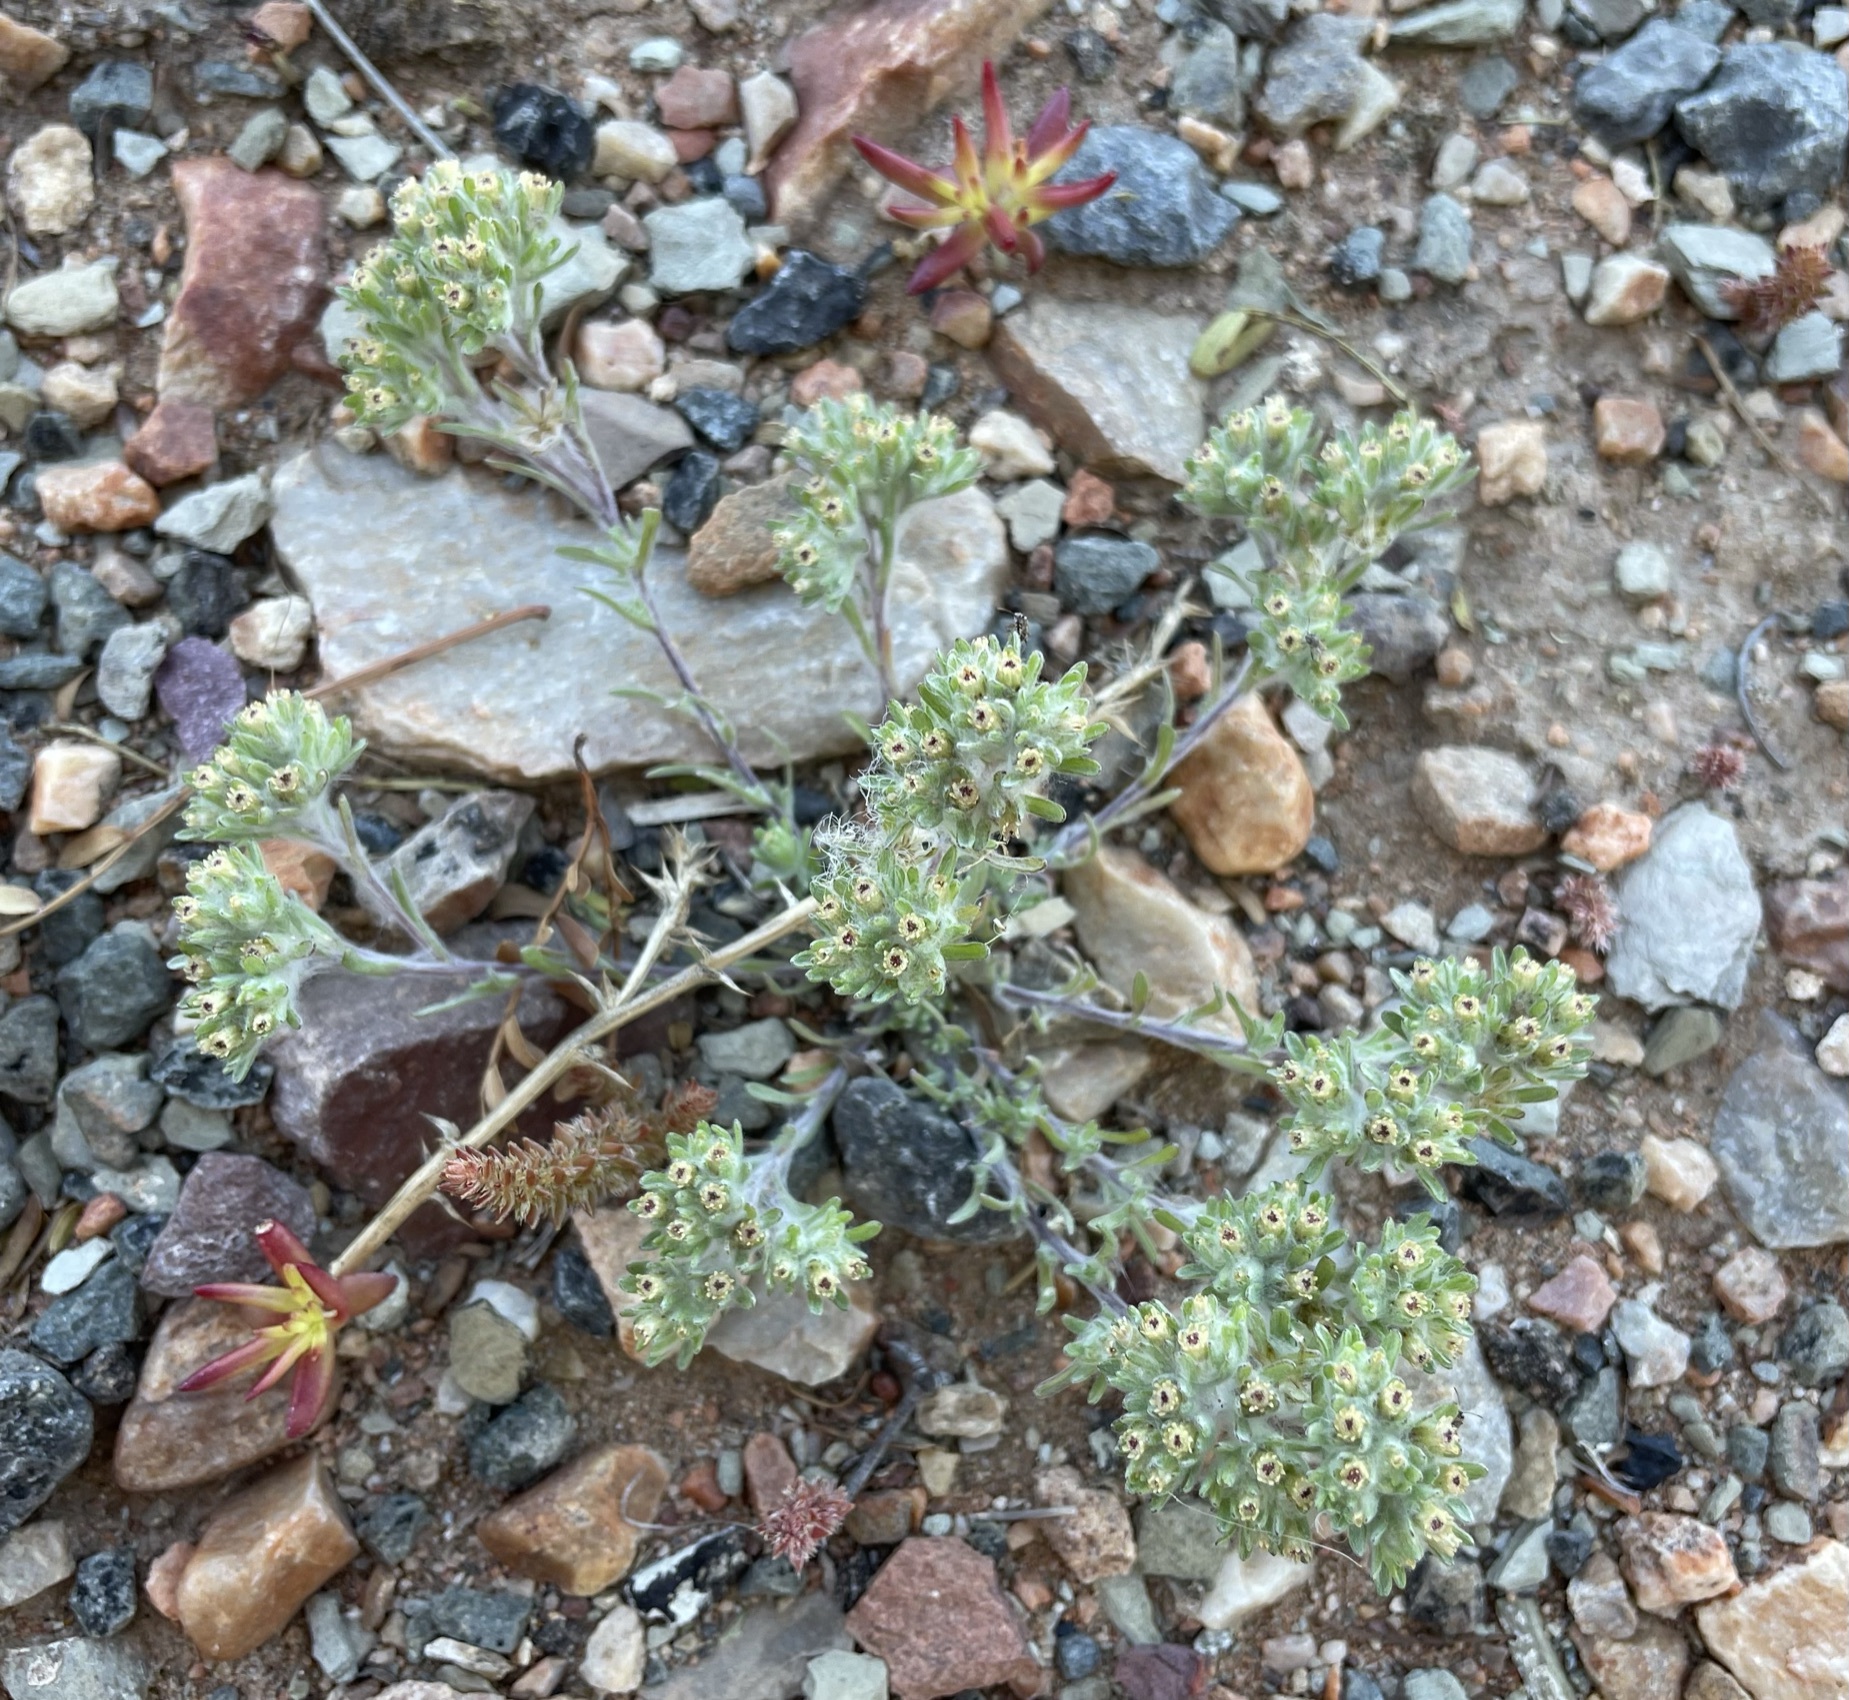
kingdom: Plantae
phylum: Tracheophyta
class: Magnoliopsida
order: Asterales
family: Asteraceae
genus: Lasiopogon
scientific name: Lasiopogon glomerulatus
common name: Green cat thorn
